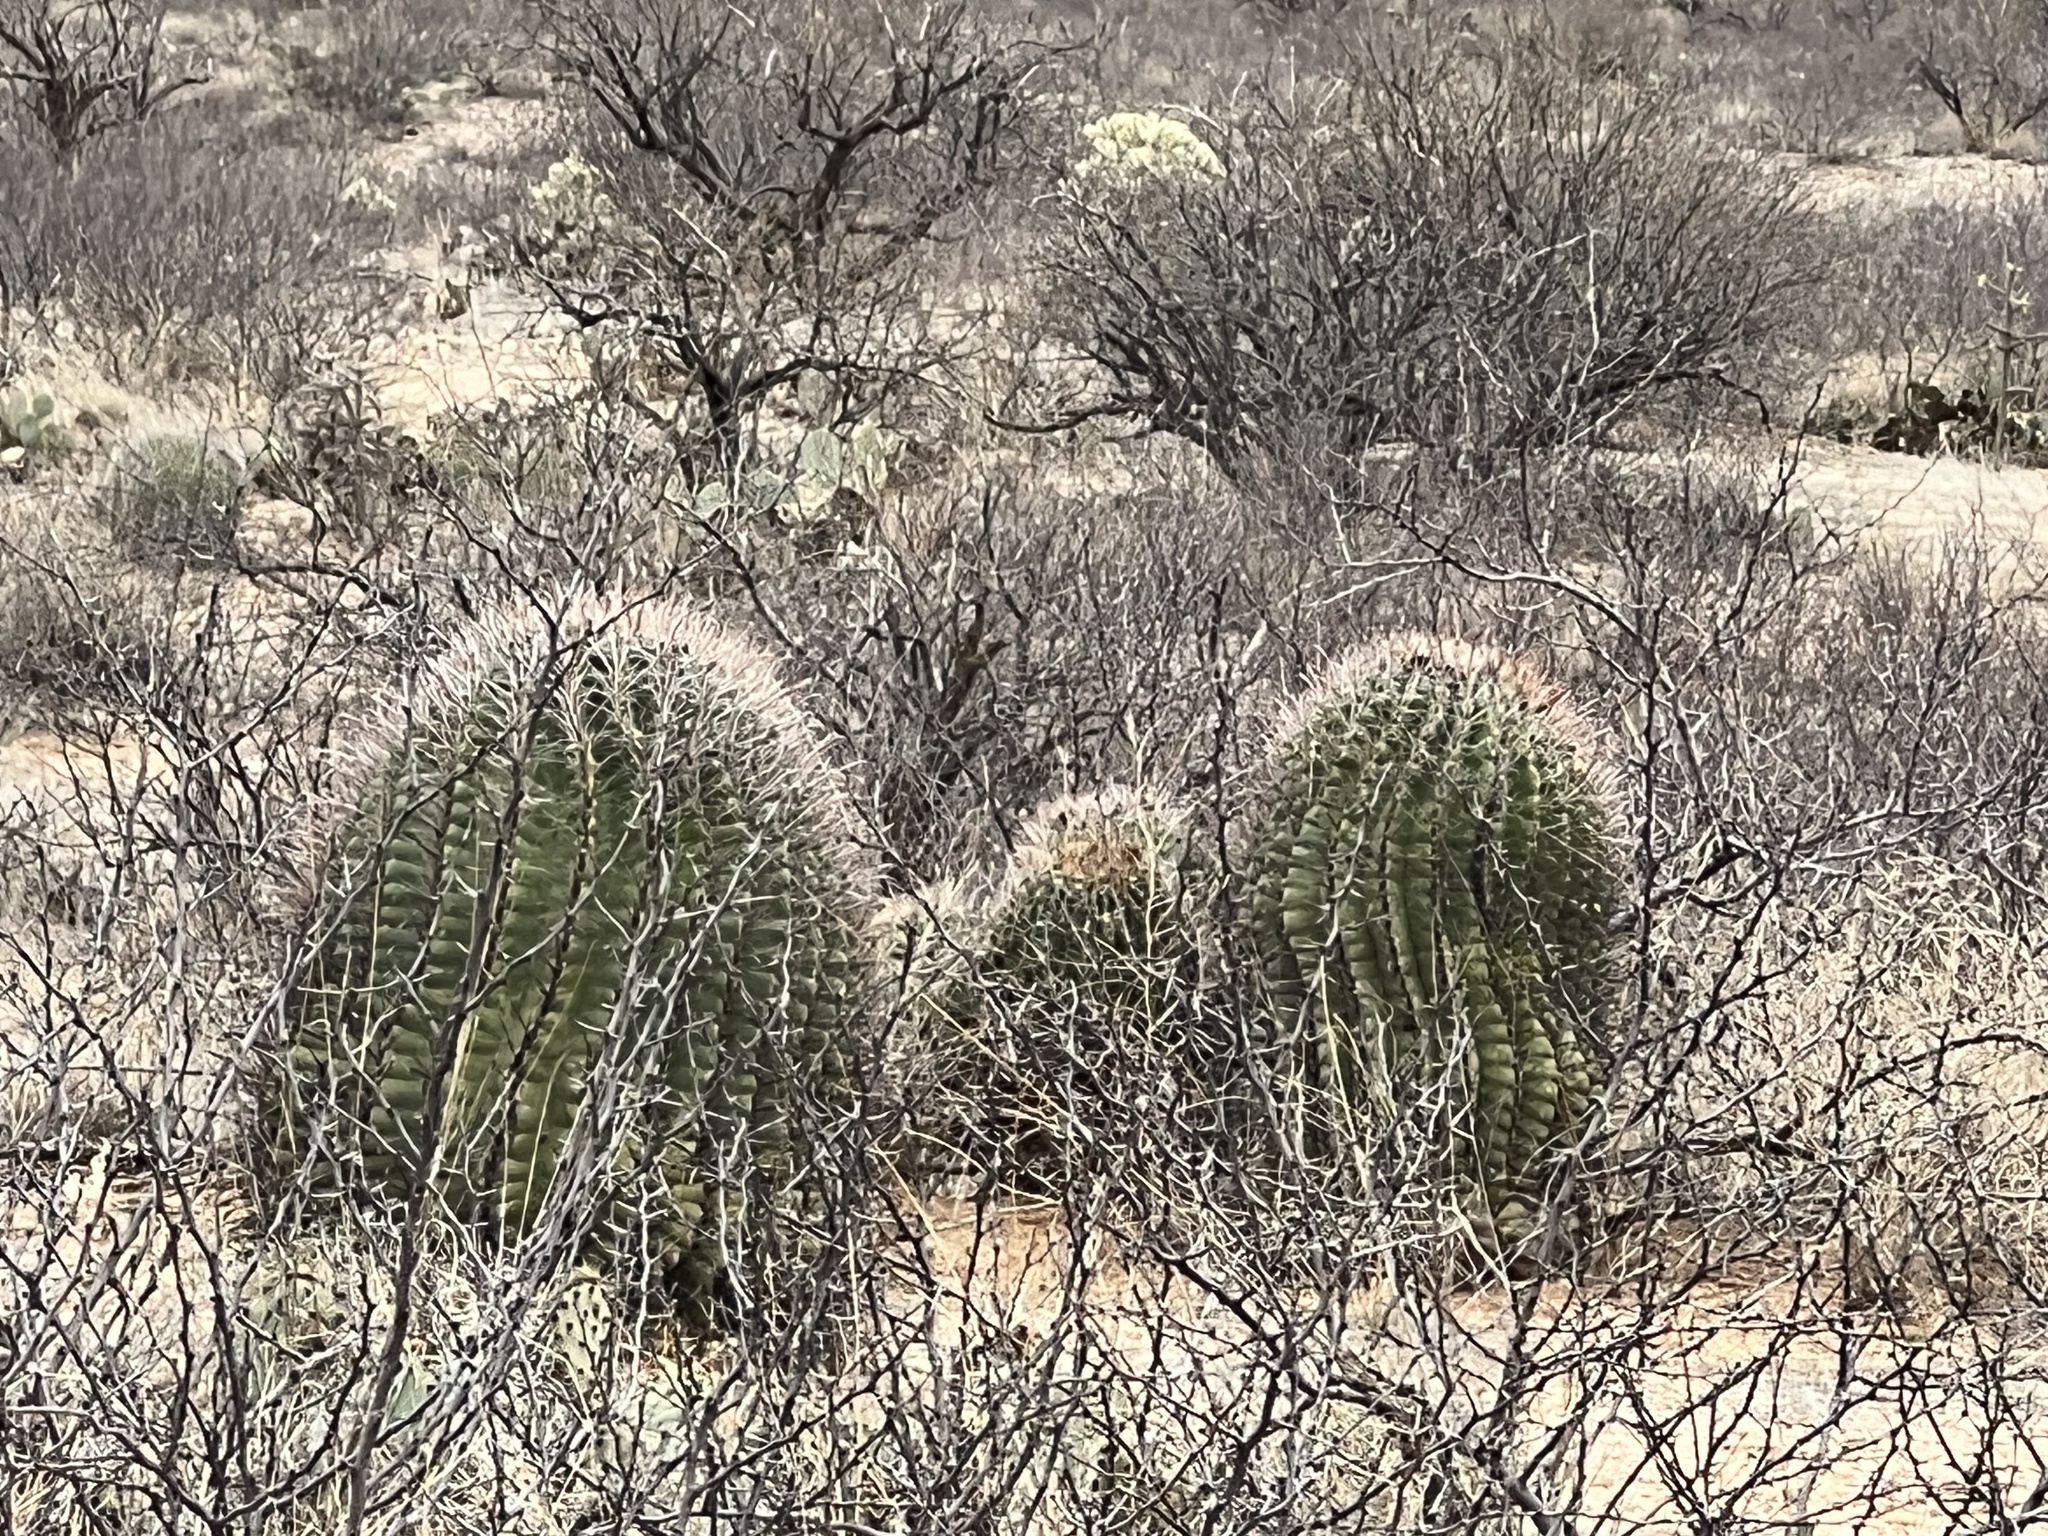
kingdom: Plantae
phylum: Tracheophyta
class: Magnoliopsida
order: Caryophyllales
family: Cactaceae
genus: Ferocactus
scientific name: Ferocactus wislizeni
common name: Candy barrel cactus
